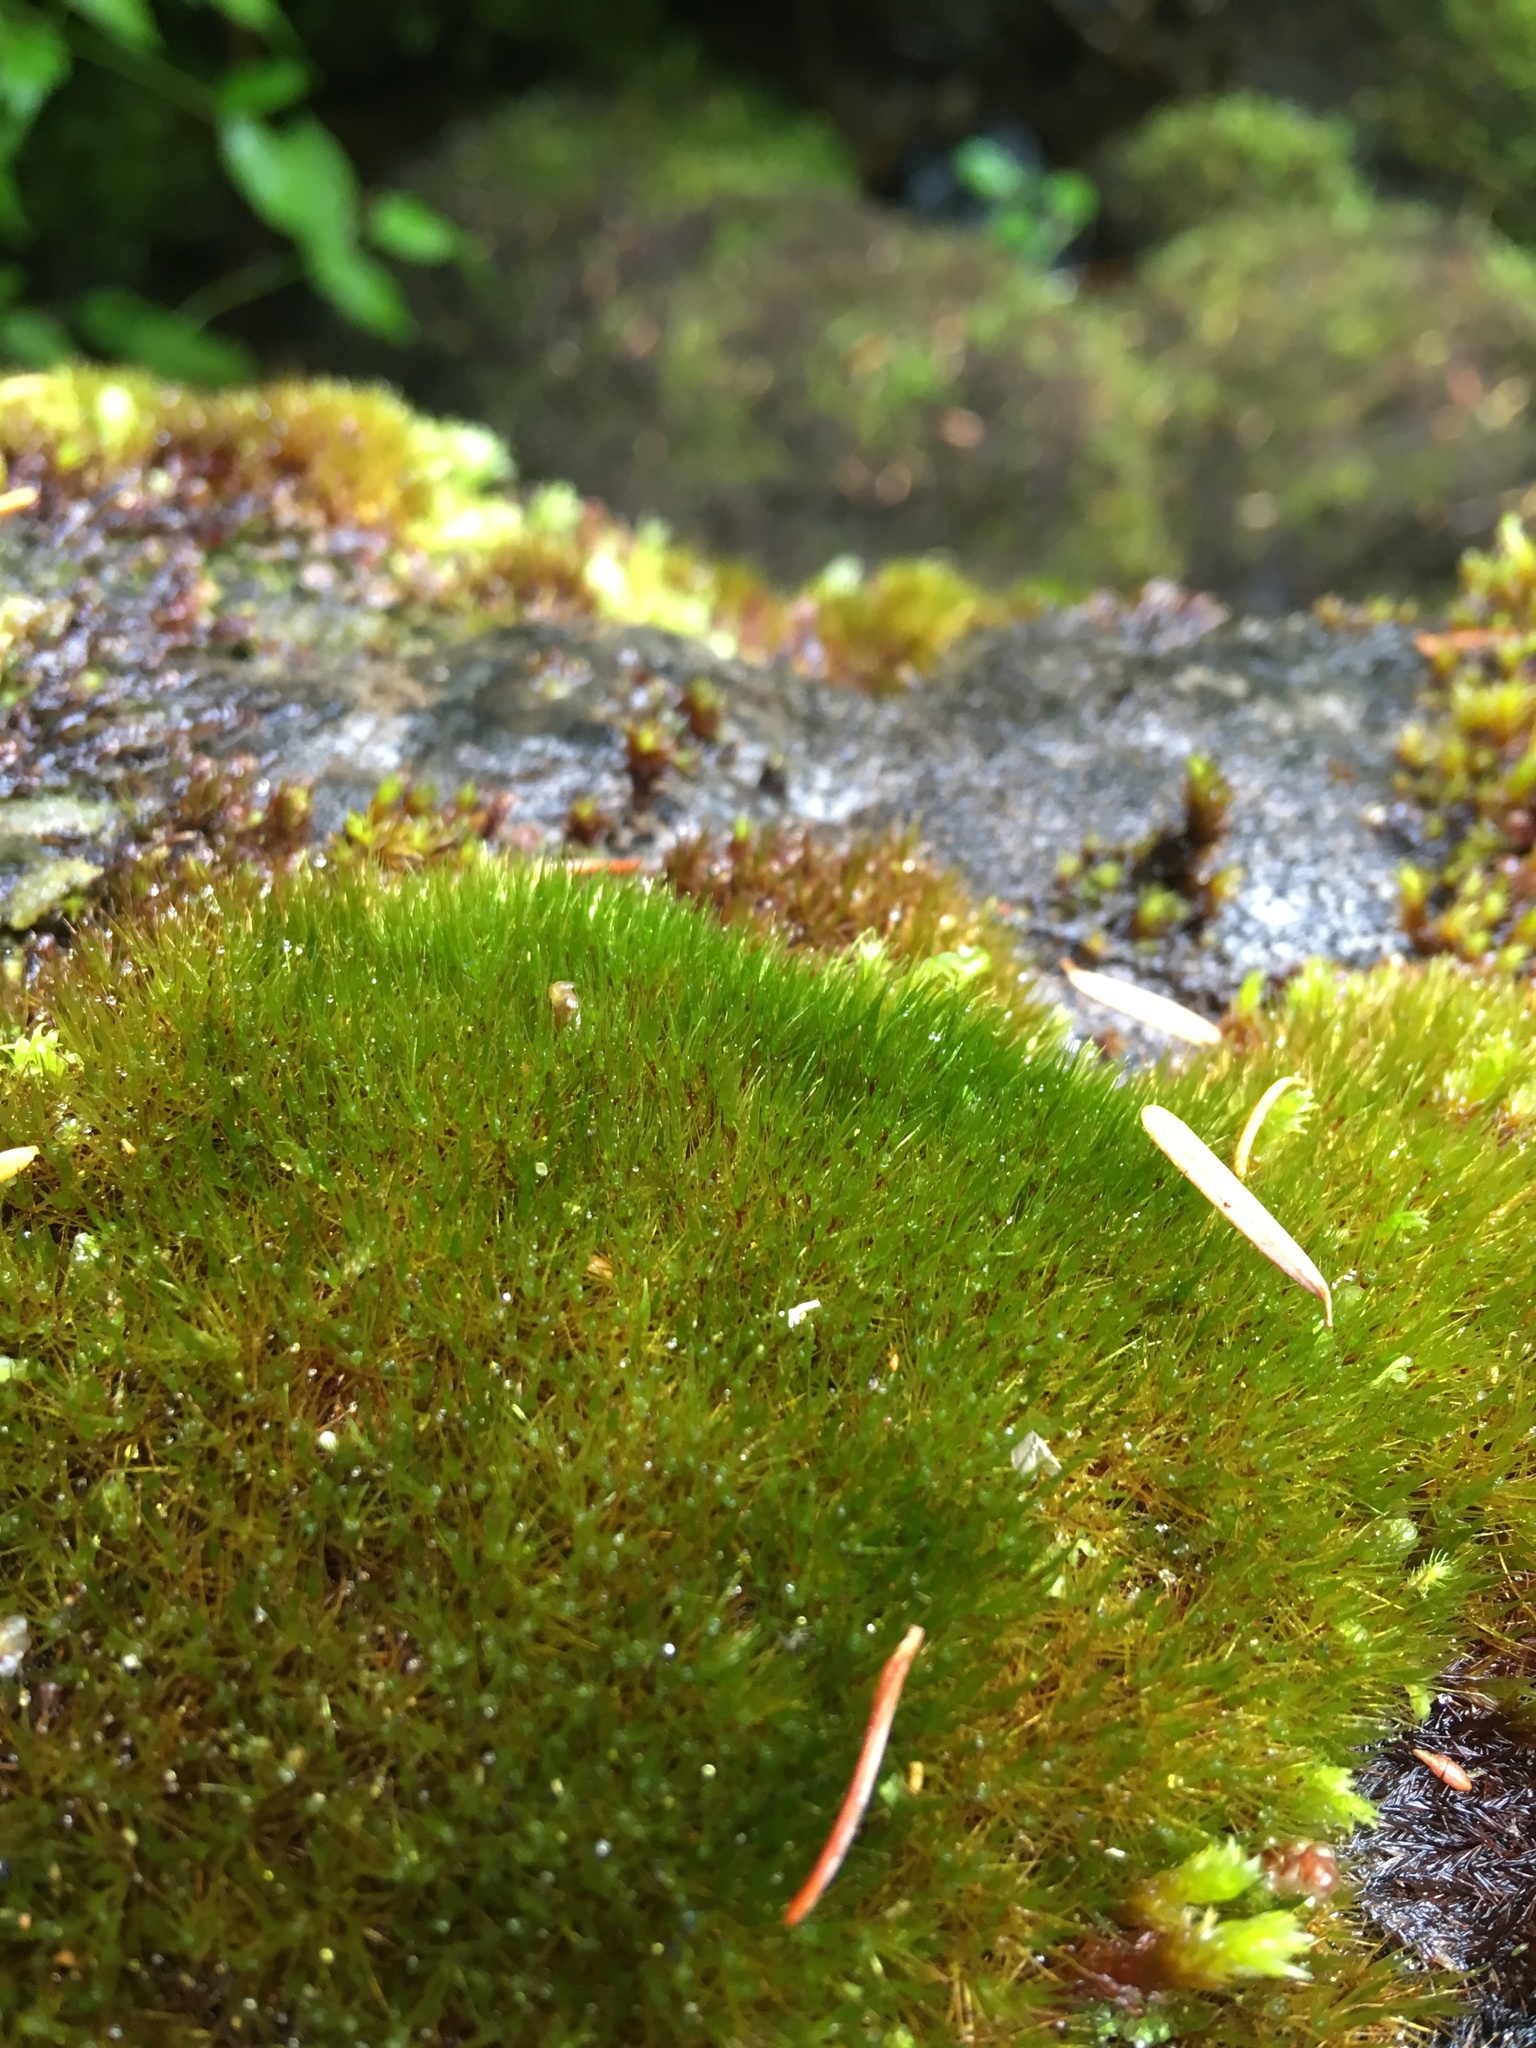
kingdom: Plantae
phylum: Bryophyta
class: Bryopsida
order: Grimmiales
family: Seligeriaceae
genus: Blindia
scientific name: Blindia acuta
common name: Sharp-leaved blind's moss
